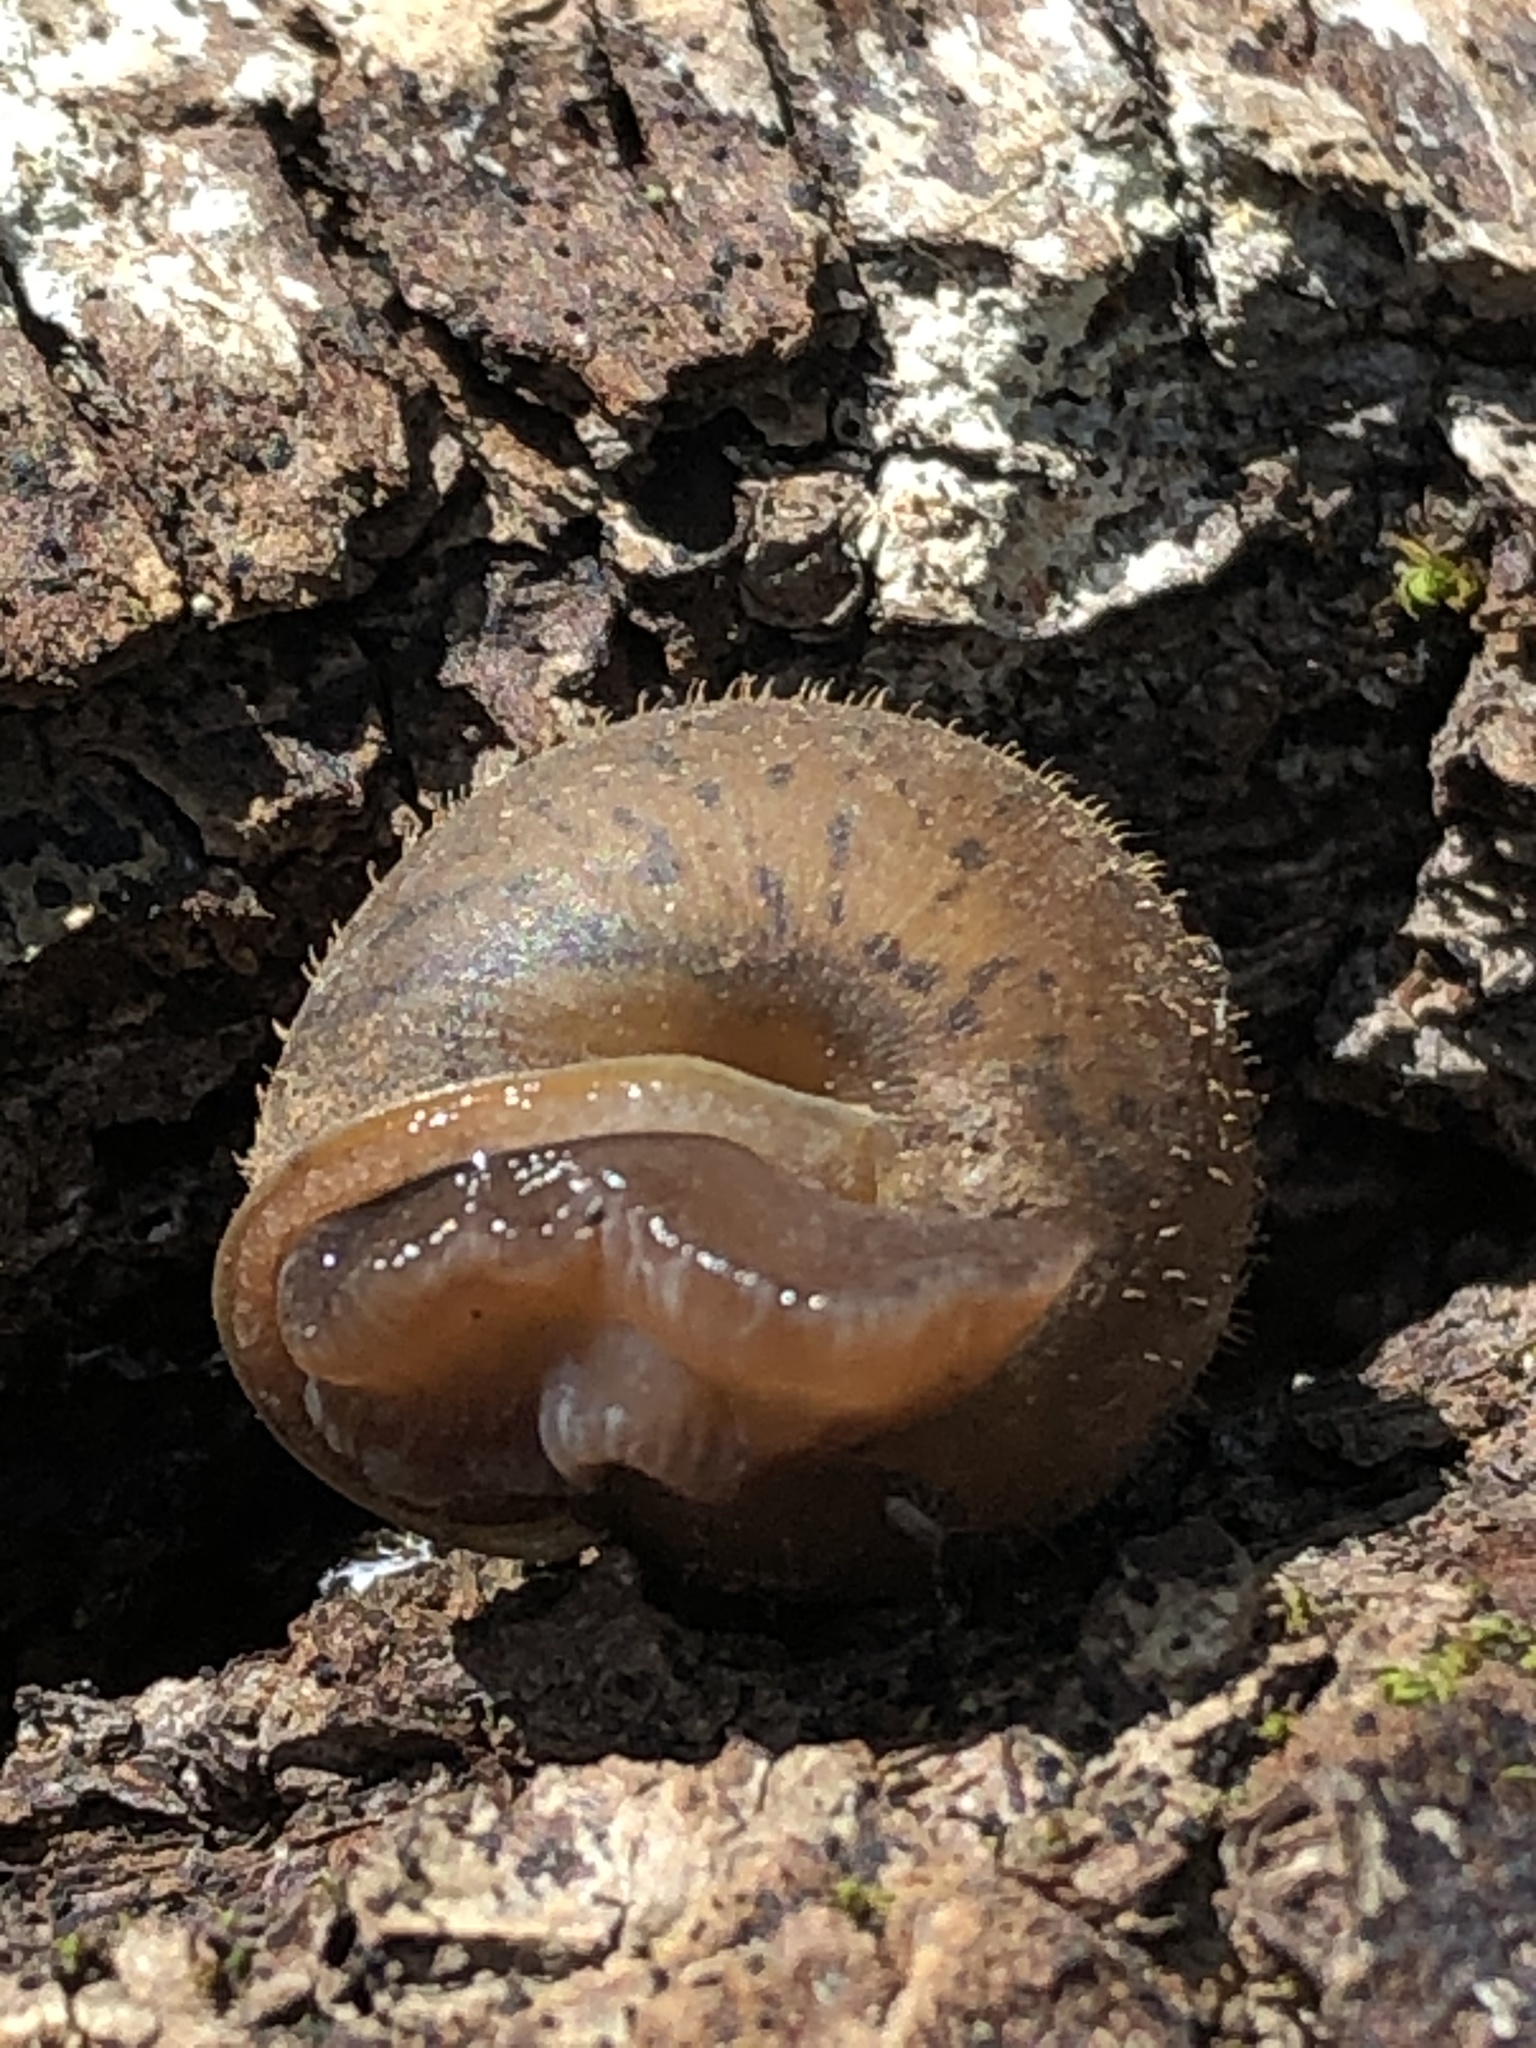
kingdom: Animalia
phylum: Mollusca
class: Gastropoda
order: Stylommatophora
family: Polygyridae
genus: Cryptomastix
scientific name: Cryptomastix germana
